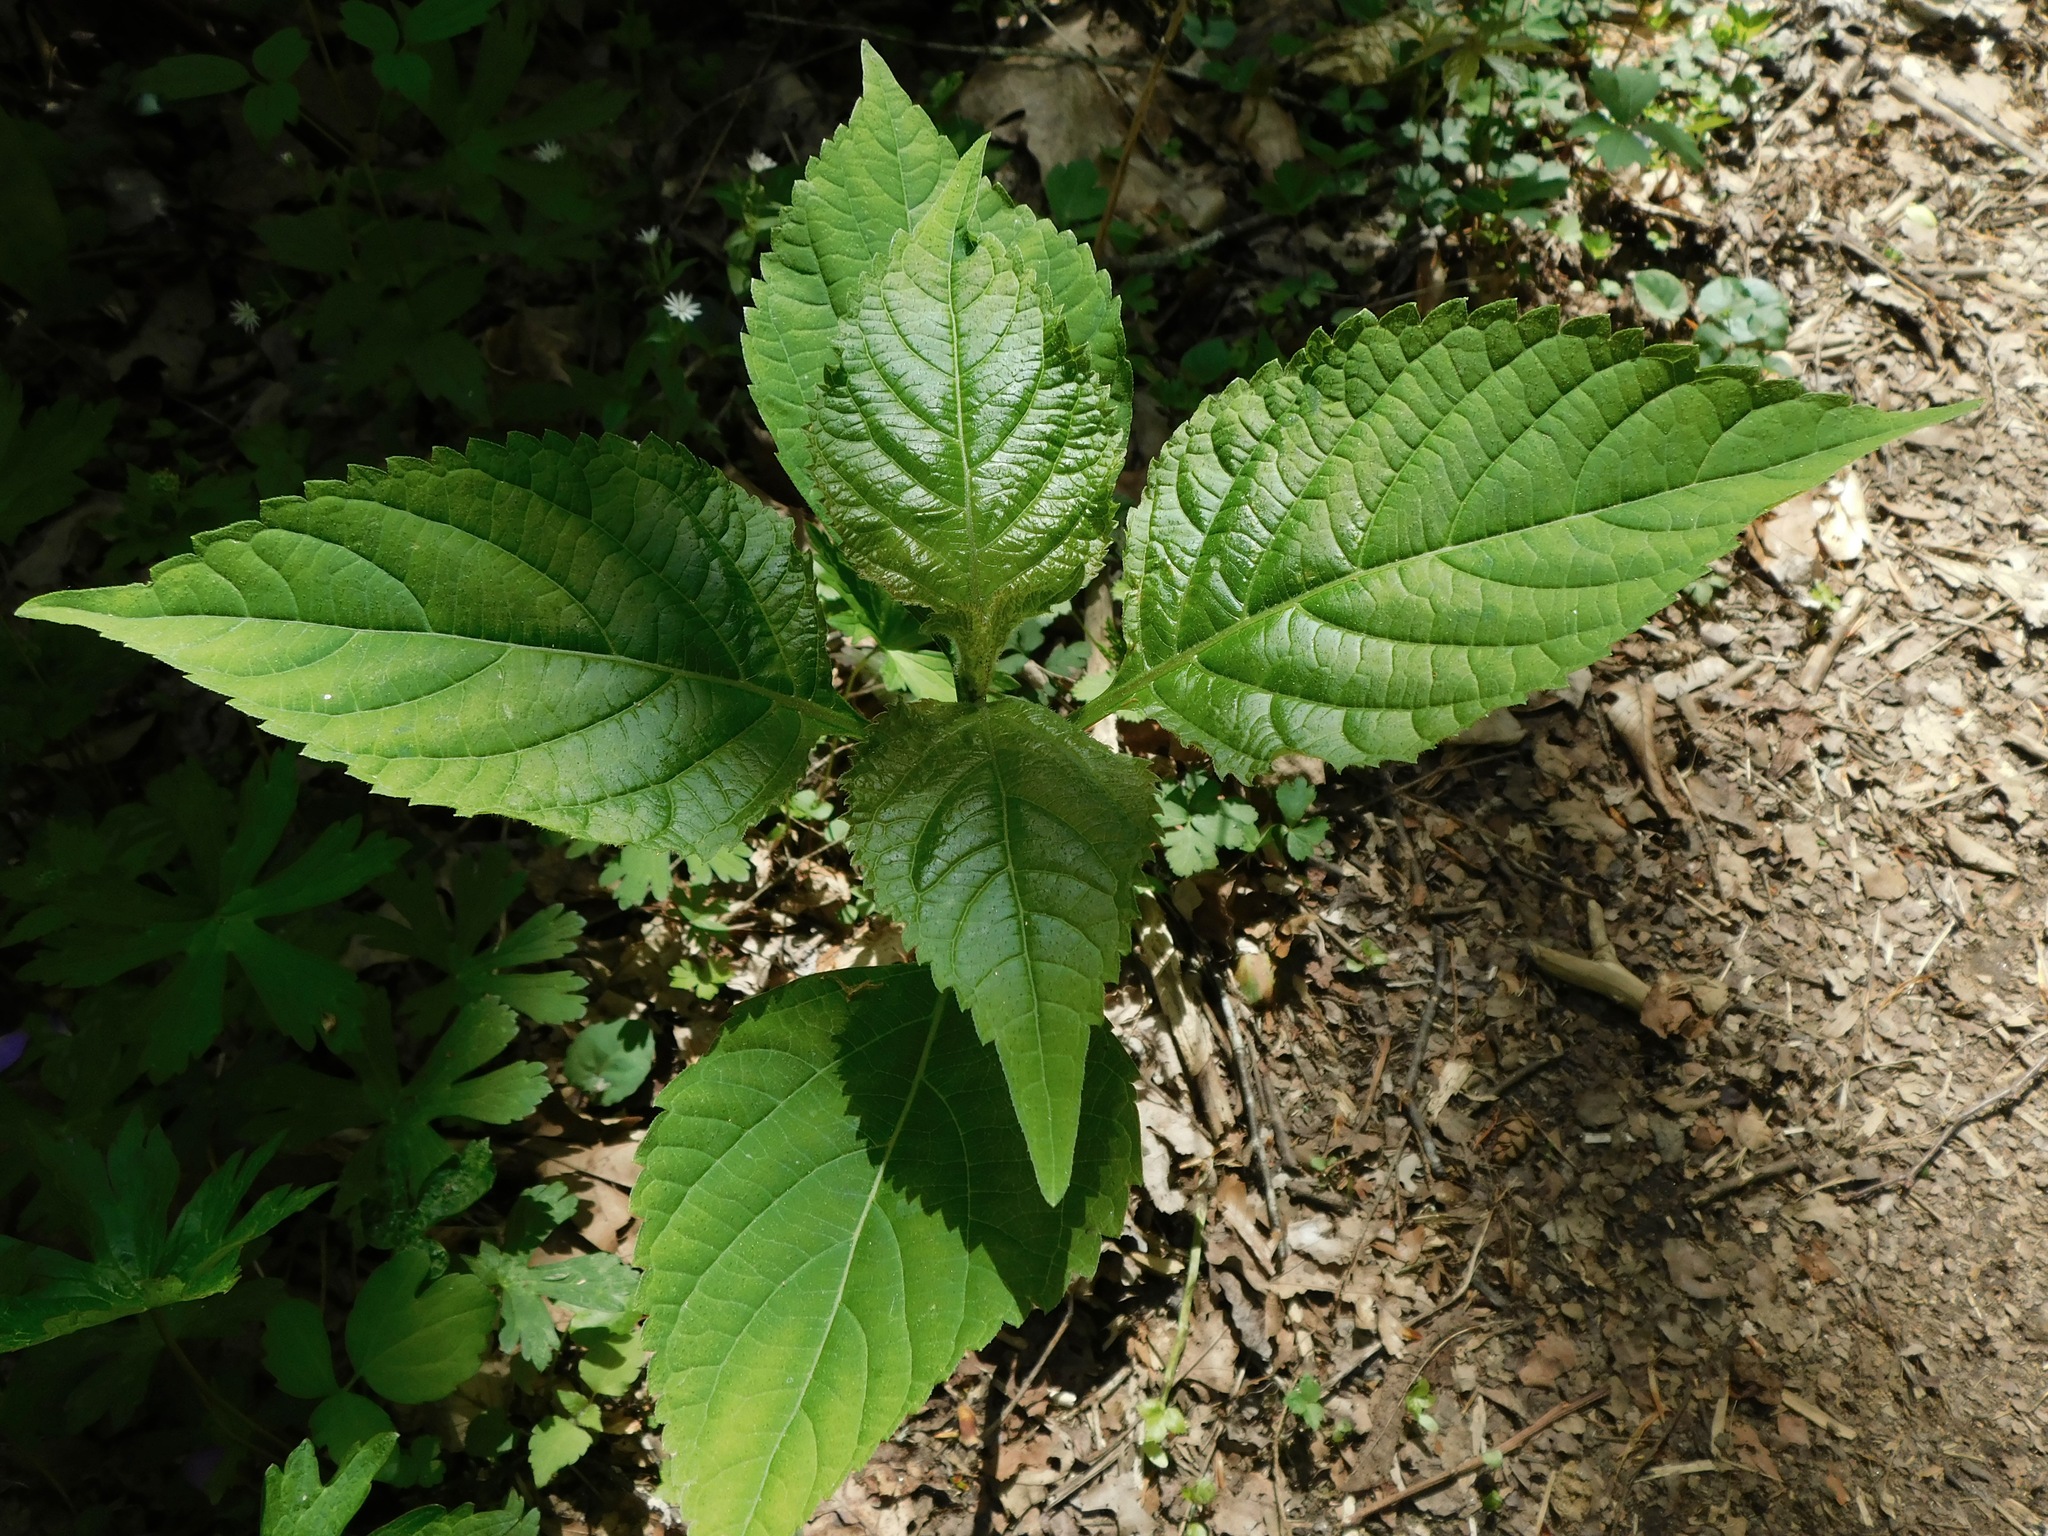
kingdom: Plantae
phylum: Tracheophyta
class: Magnoliopsida
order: Lamiales
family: Lamiaceae
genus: Collinsonia
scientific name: Collinsonia canadensis
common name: Northern horsebalm
